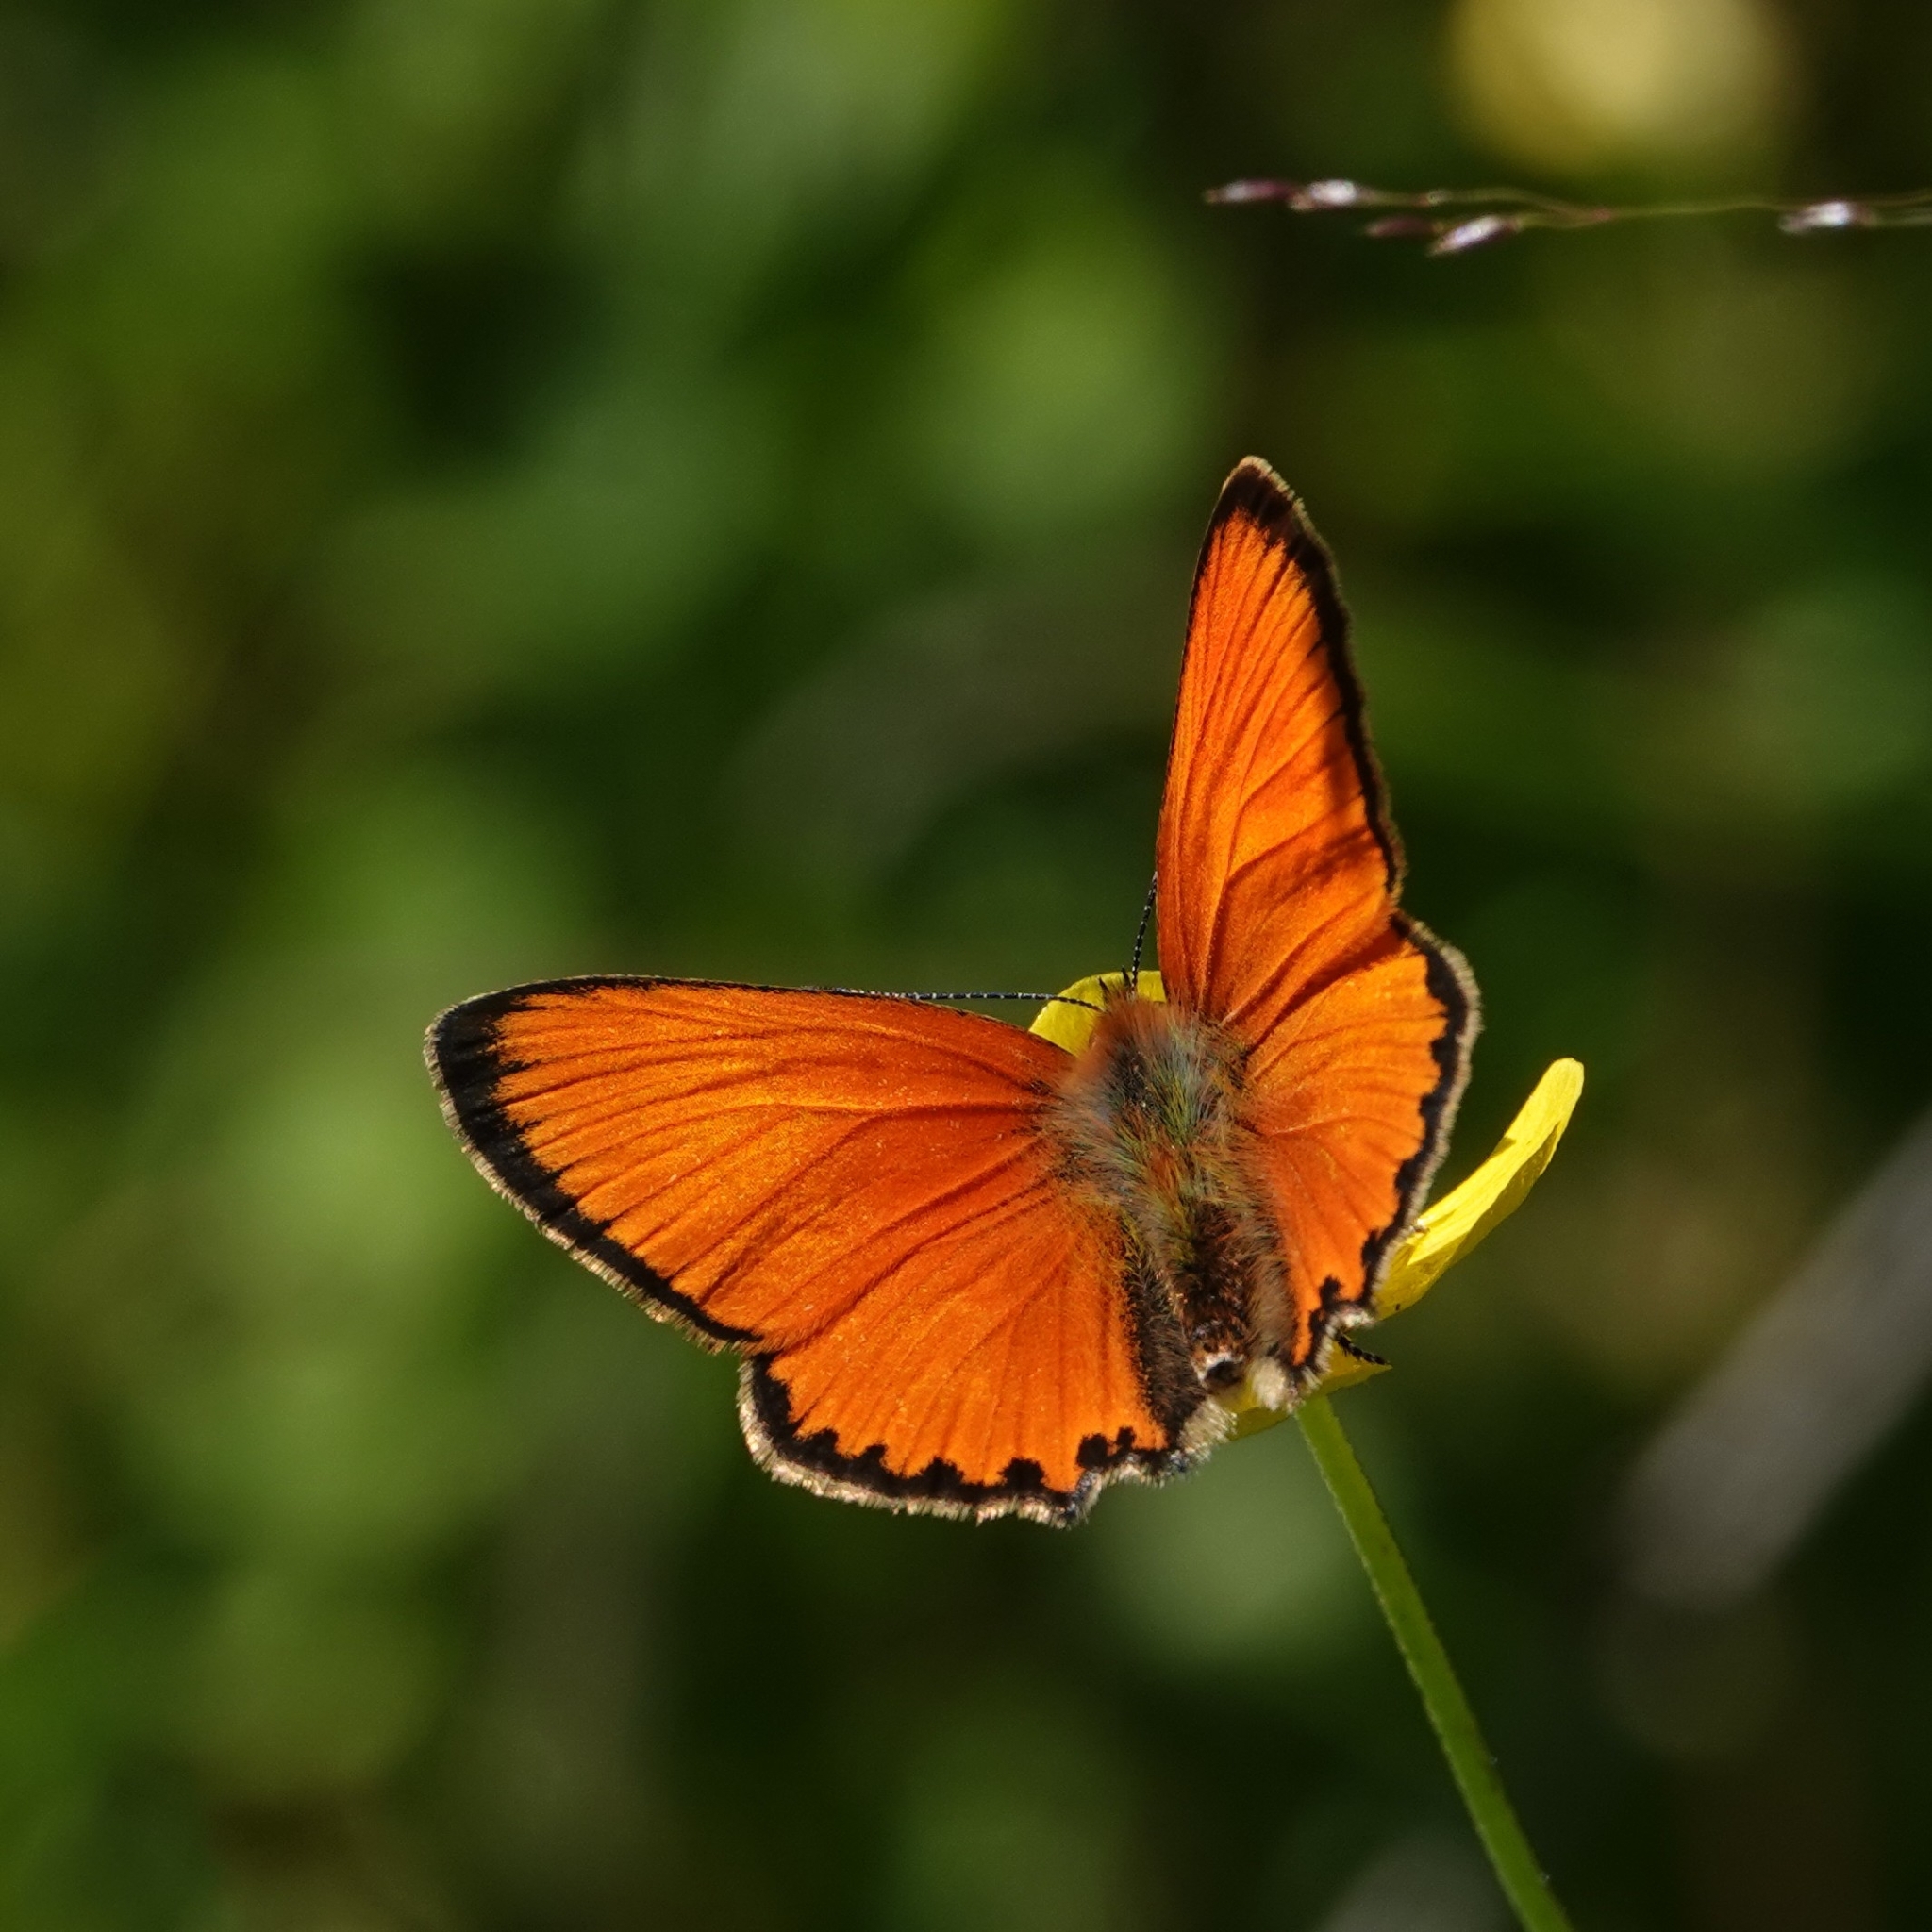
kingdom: Animalia
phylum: Arthropoda
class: Insecta
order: Lepidoptera
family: Lycaenidae
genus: Lycaena
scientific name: Lycaena virgaureae
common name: Scarce copper
